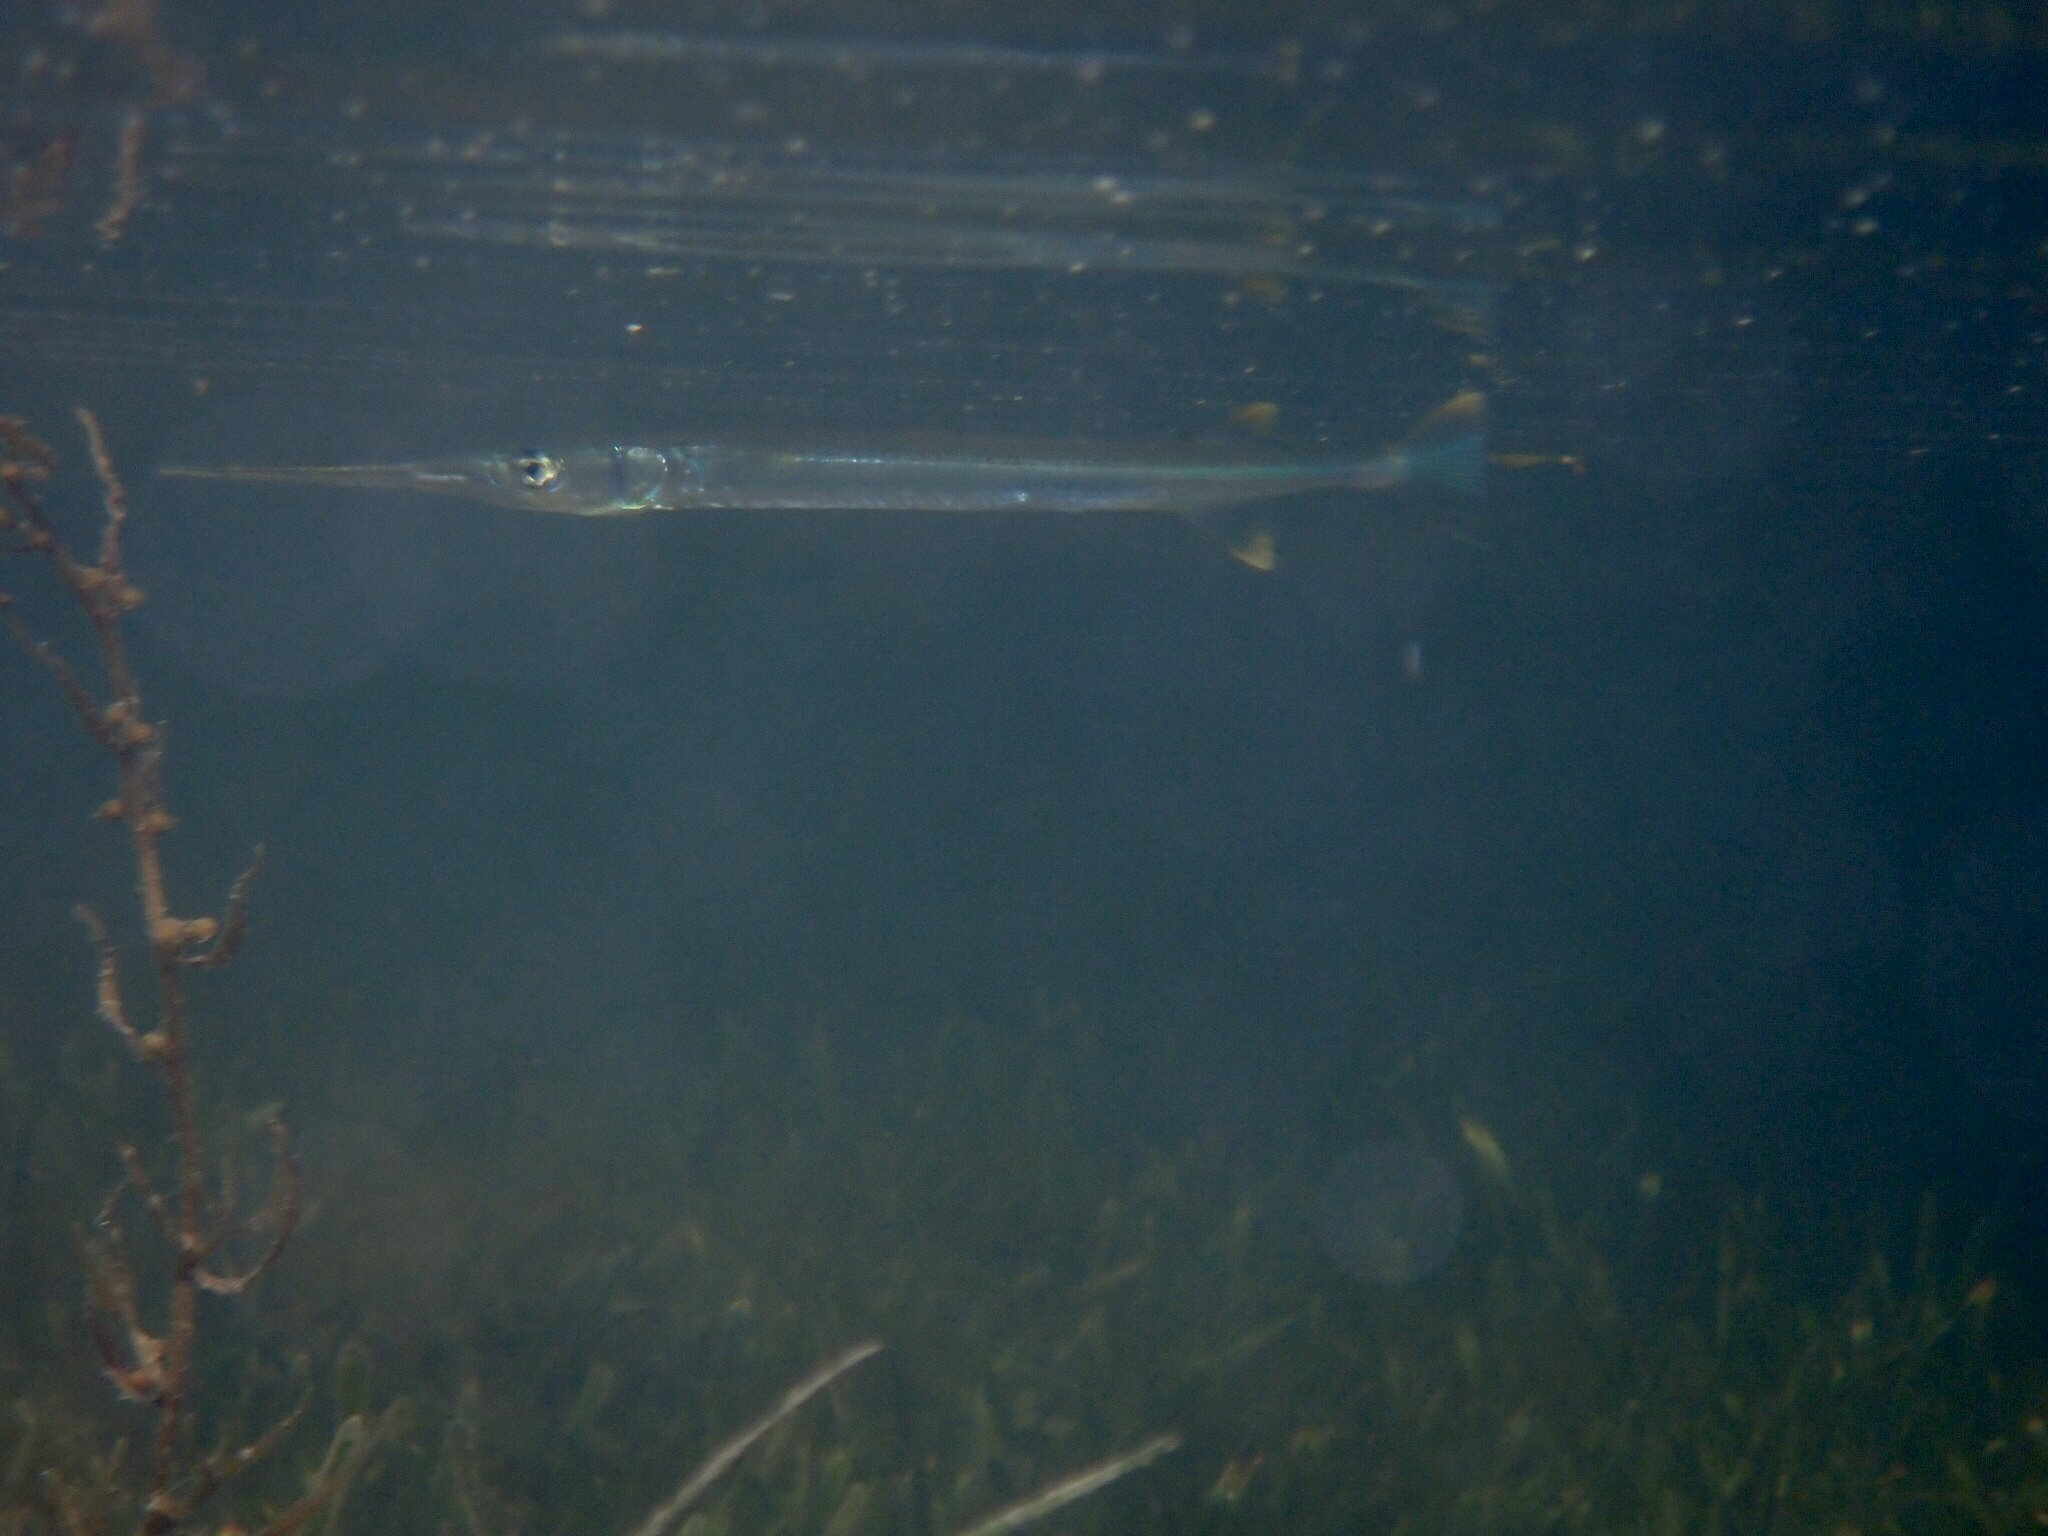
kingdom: Animalia
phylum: Chordata
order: Beloniformes
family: Belonidae
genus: Strongylura
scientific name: Strongylura notata
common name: Redfin needlefish
